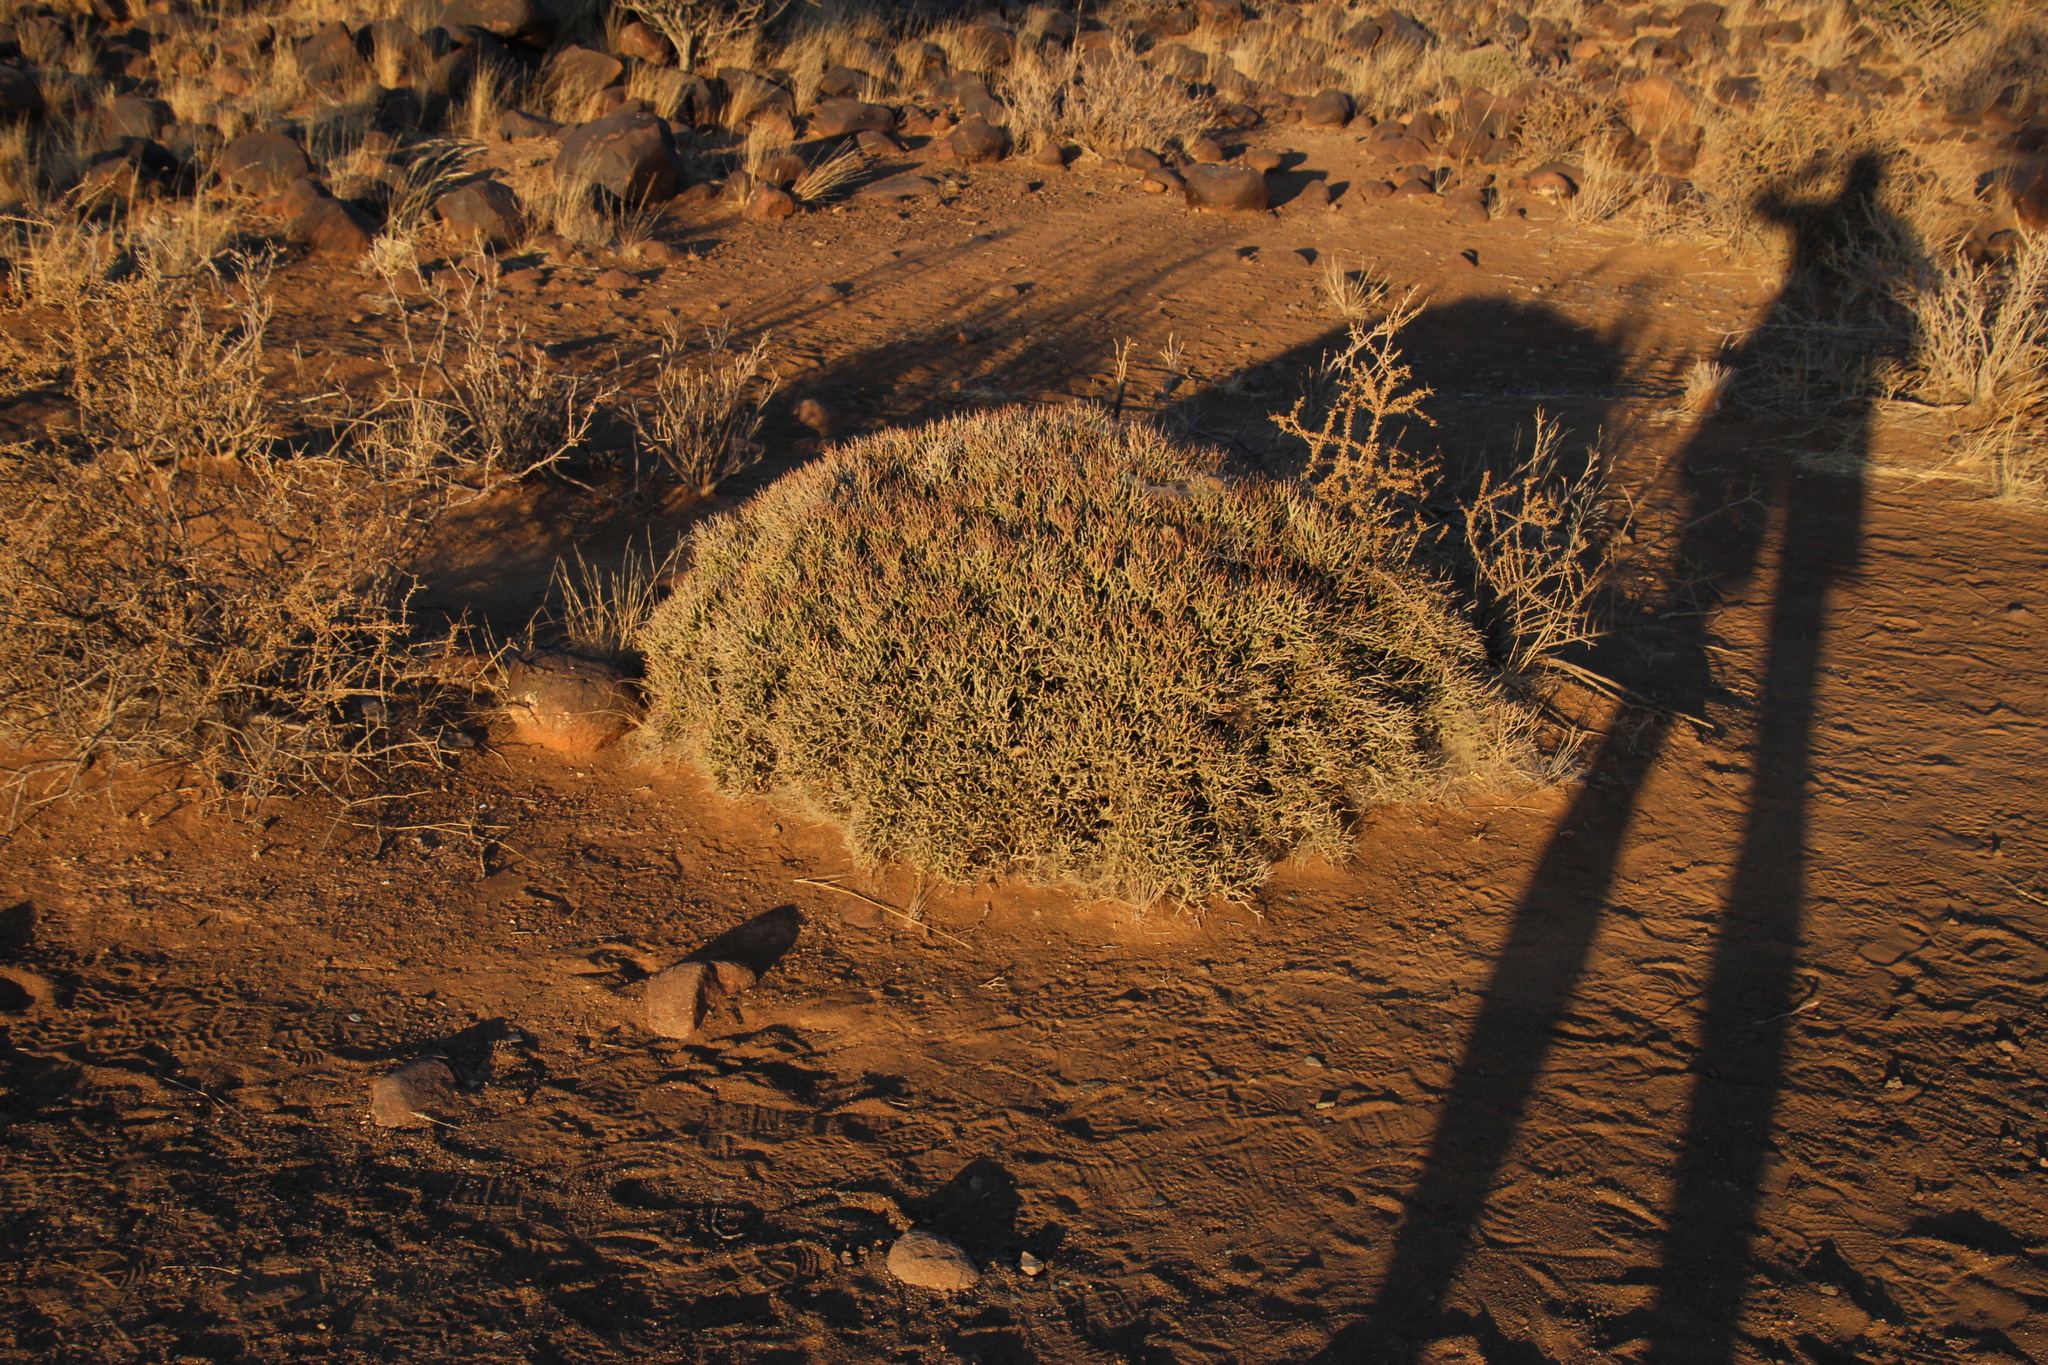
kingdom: Plantae
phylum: Tracheophyta
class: Magnoliopsida
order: Malpighiales
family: Euphorbiaceae
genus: Euphorbia
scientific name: Euphorbia lignosa
